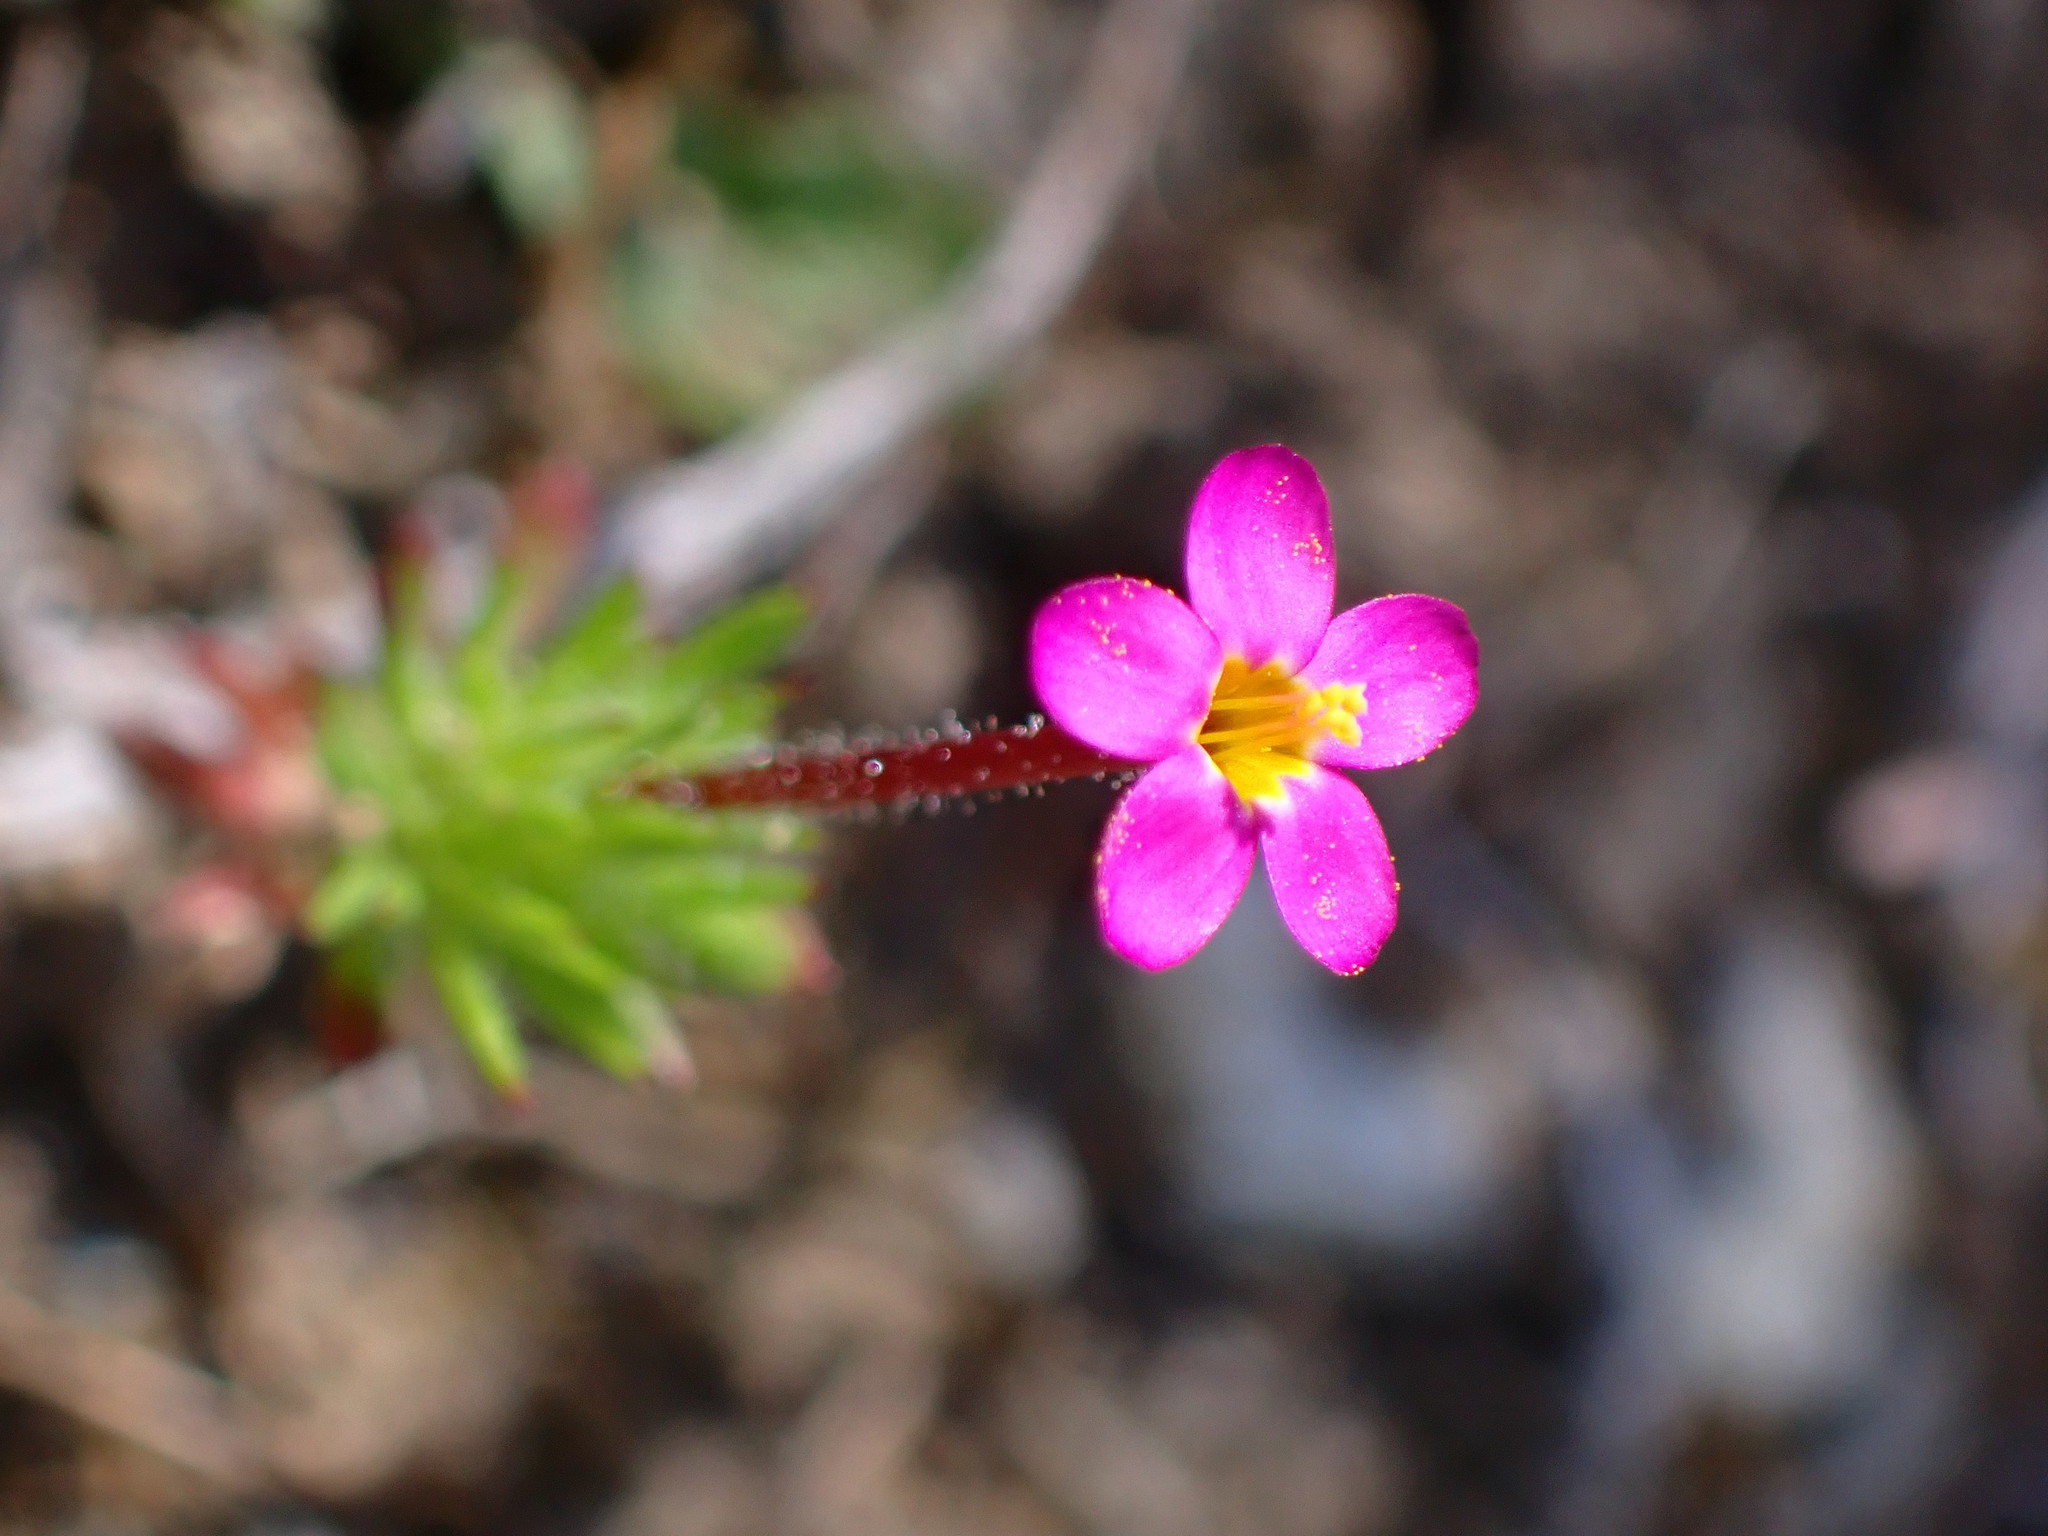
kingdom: Plantae
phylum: Tracheophyta
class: Magnoliopsida
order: Ericales
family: Polemoniaceae
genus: Leptosiphon
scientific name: Leptosiphon bicolor
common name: True babystars
